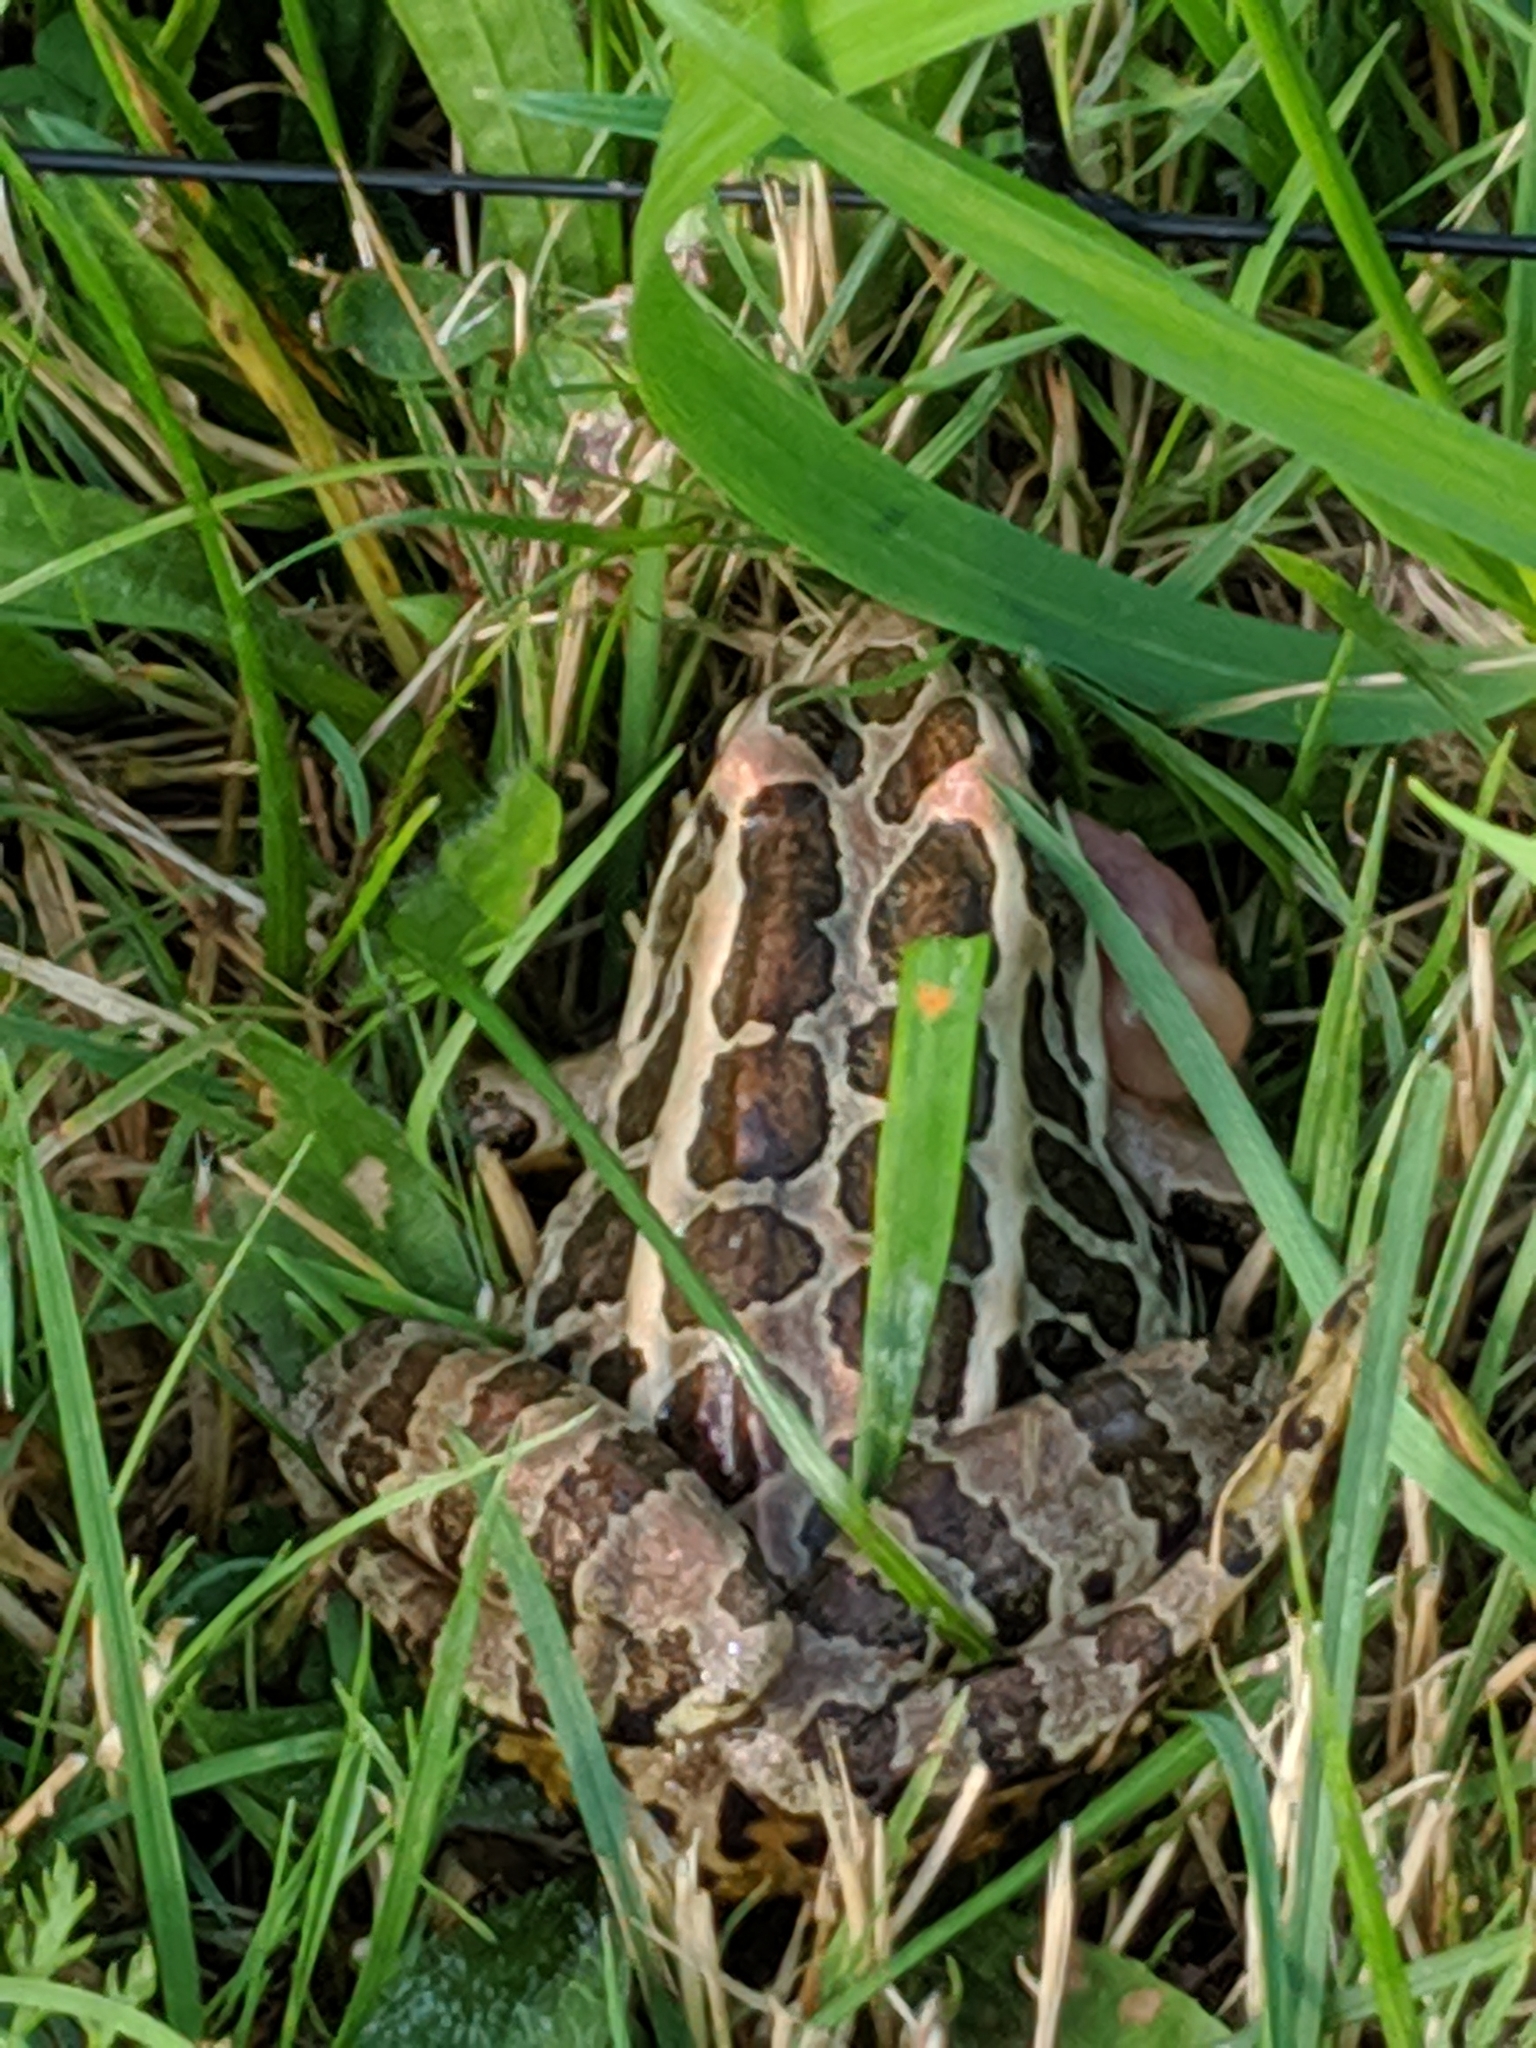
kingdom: Animalia
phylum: Chordata
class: Amphibia
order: Anura
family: Ranidae
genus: Lithobates
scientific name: Lithobates palustris
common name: Pickerel frog
